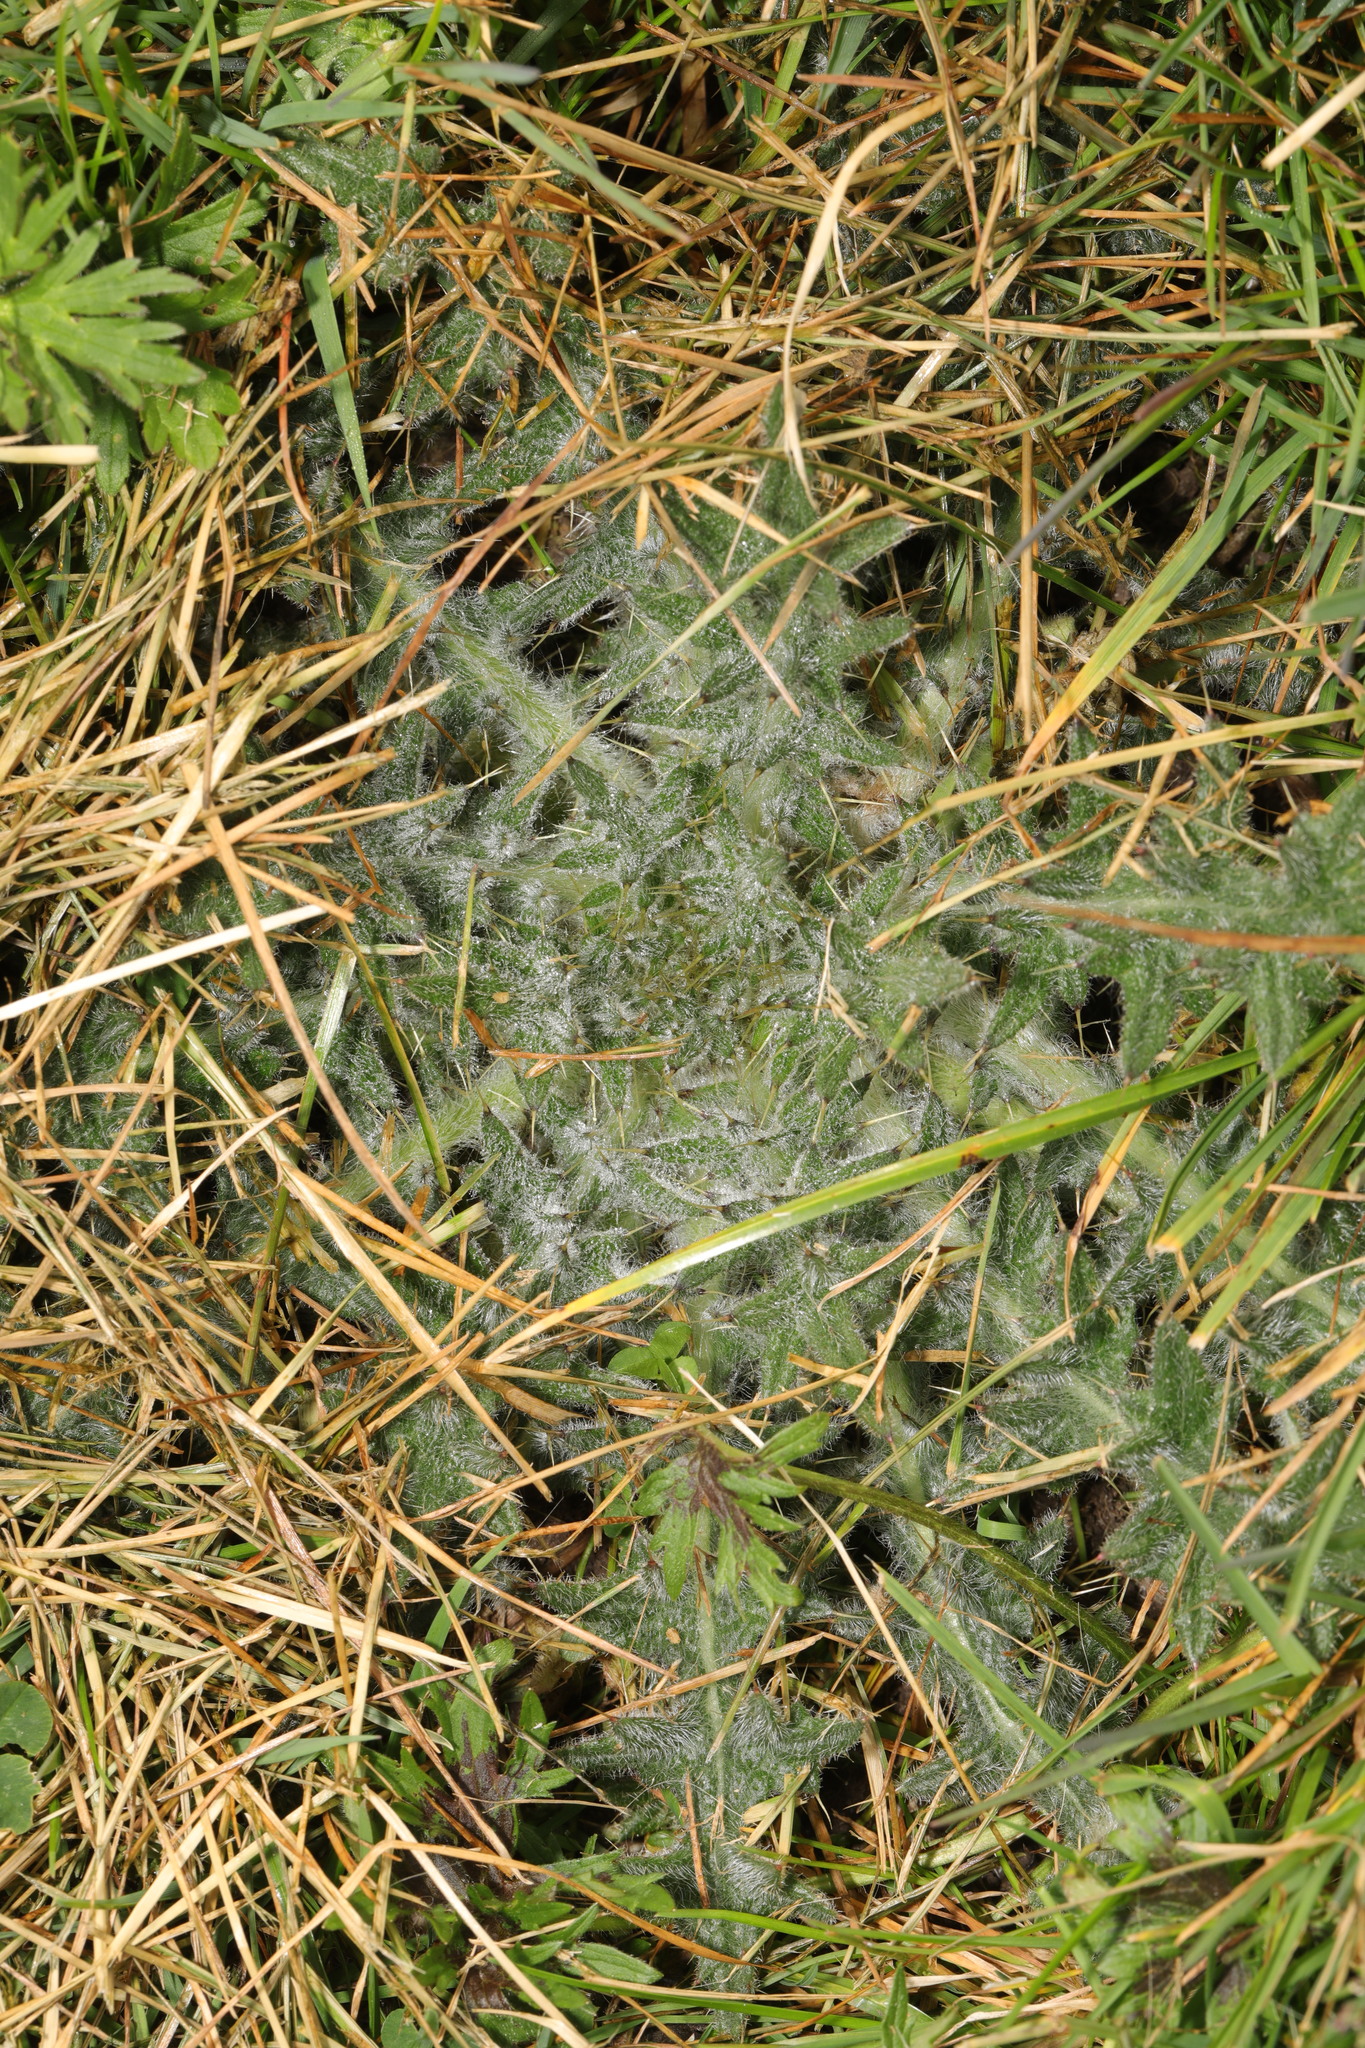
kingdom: Plantae
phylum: Tracheophyta
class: Magnoliopsida
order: Asterales
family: Asteraceae
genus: Cirsium
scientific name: Cirsium vulgare
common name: Bull thistle
